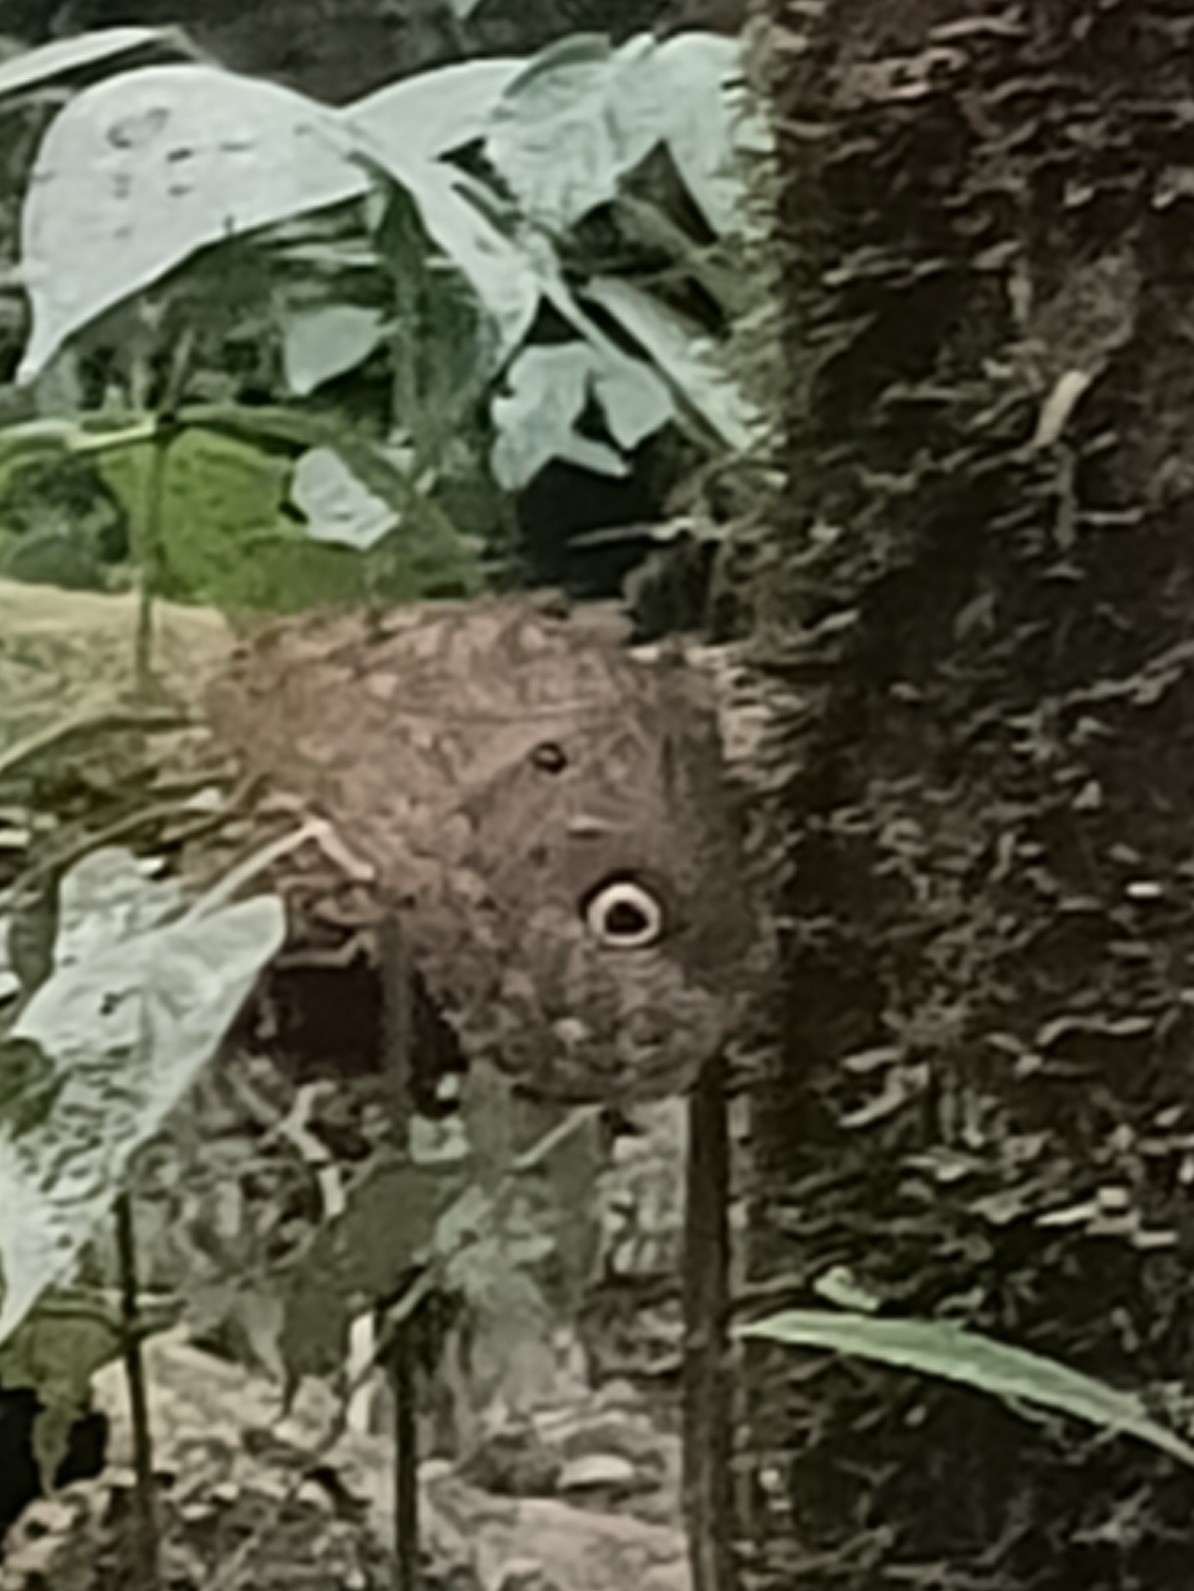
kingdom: Animalia
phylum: Arthropoda
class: Insecta
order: Lepidoptera
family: Nymphalidae
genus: Caligo
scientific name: Caligo eurilochus
